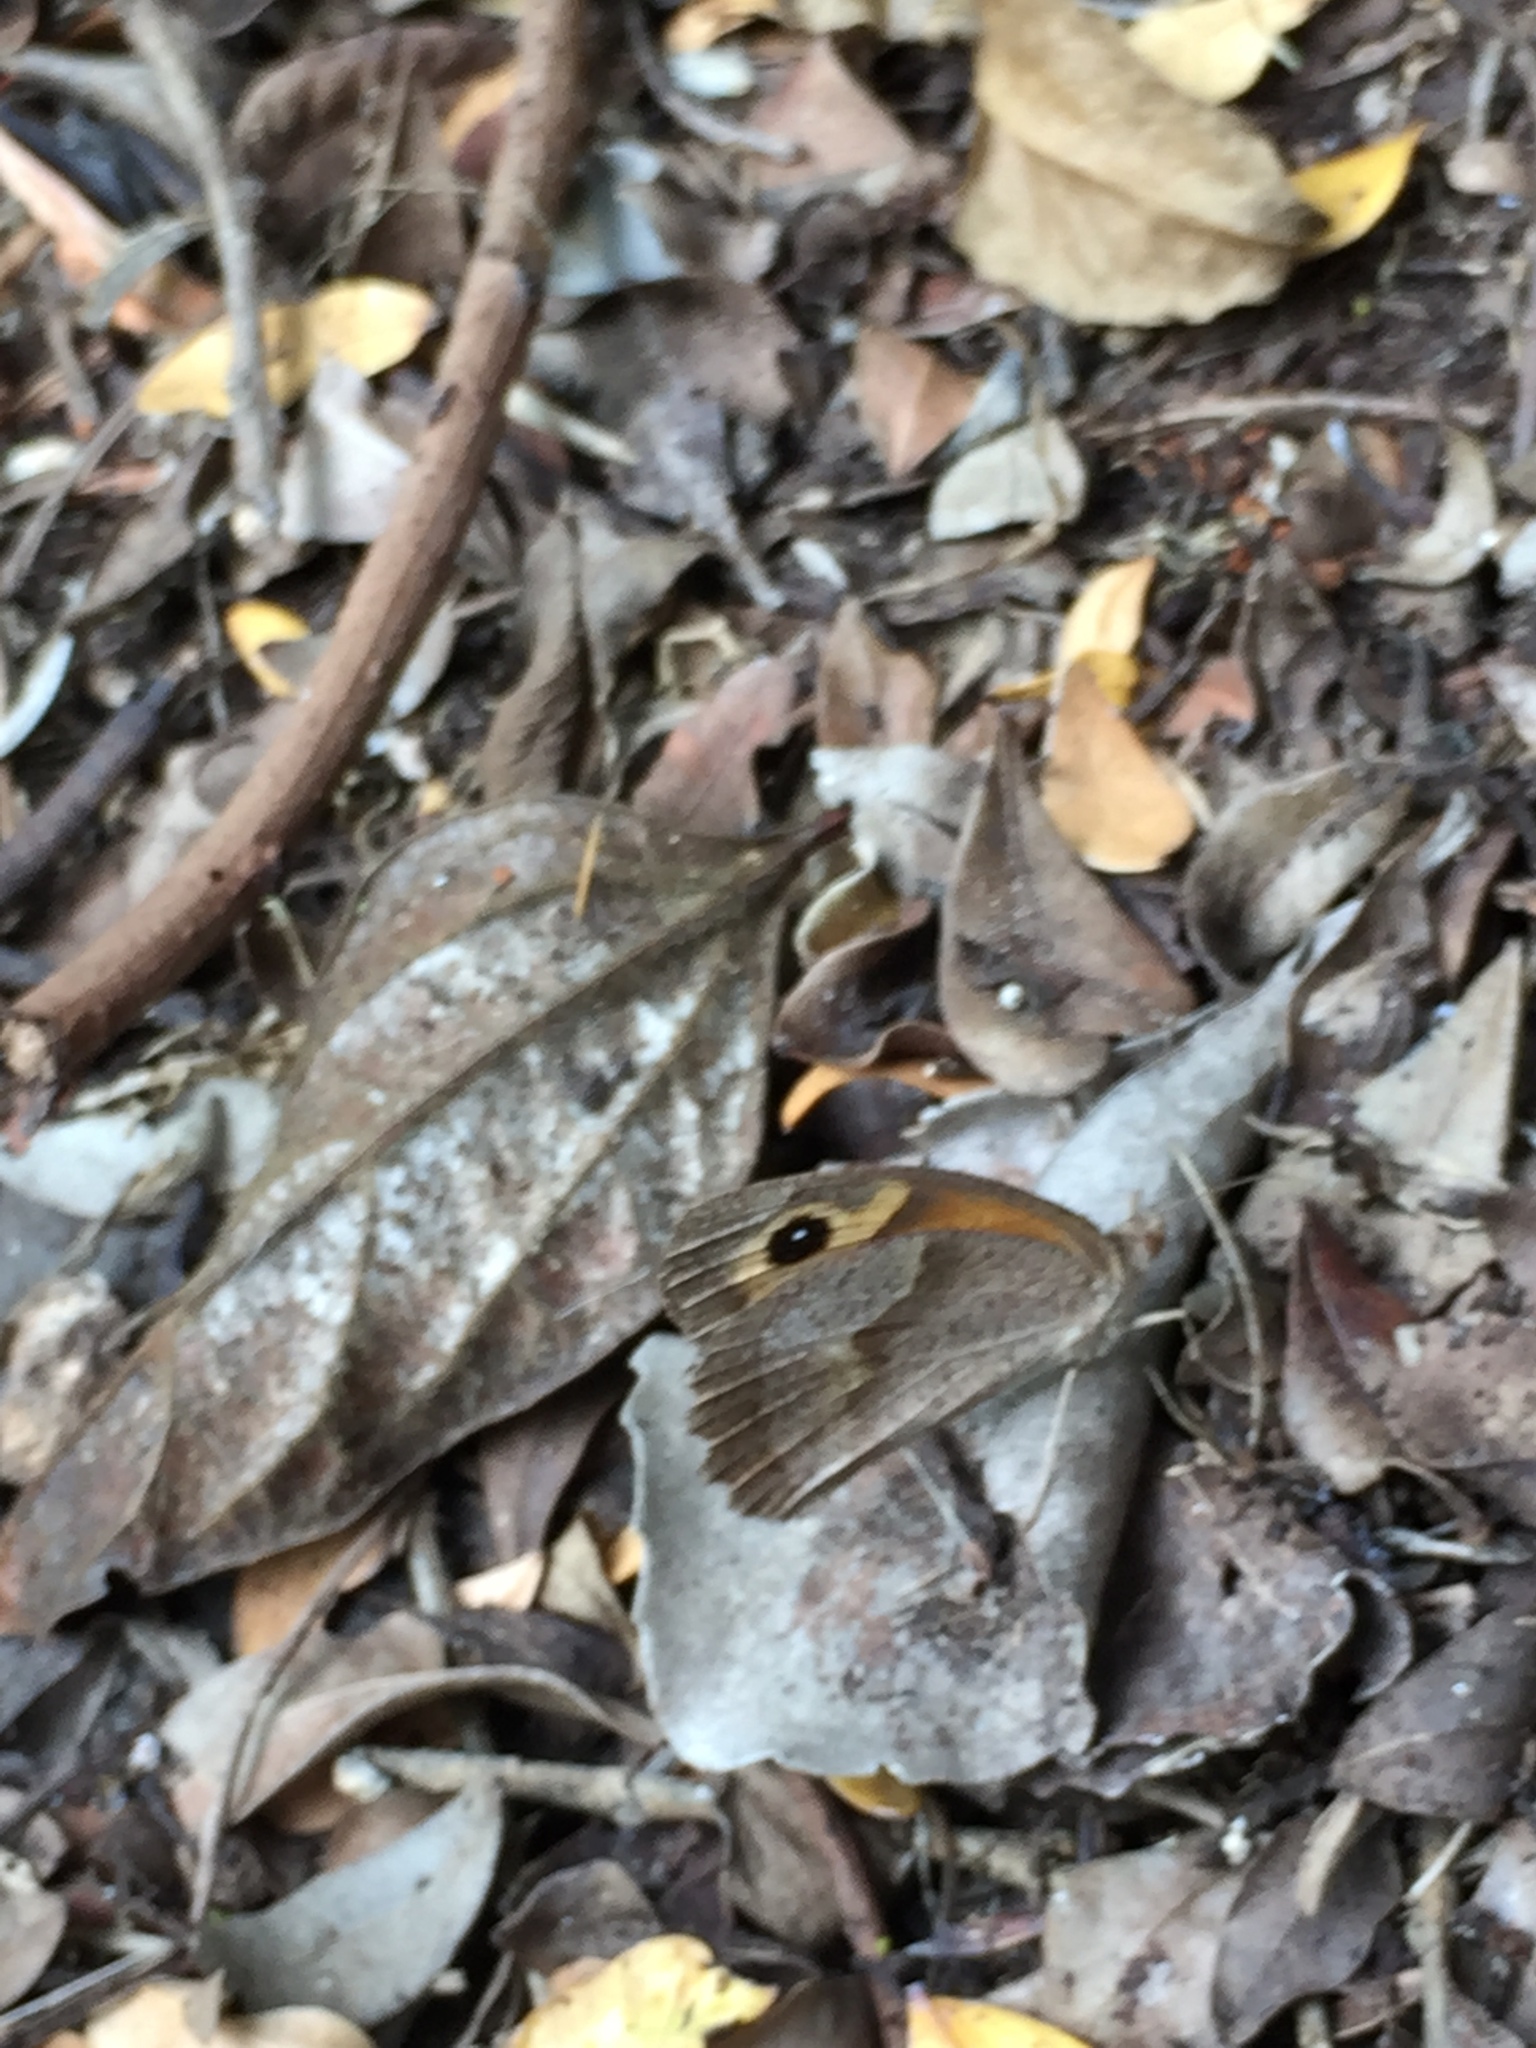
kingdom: Animalia
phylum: Arthropoda
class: Insecta
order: Lepidoptera
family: Nymphalidae
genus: Maniola
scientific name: Maniola jurtina
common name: Meadow brown
